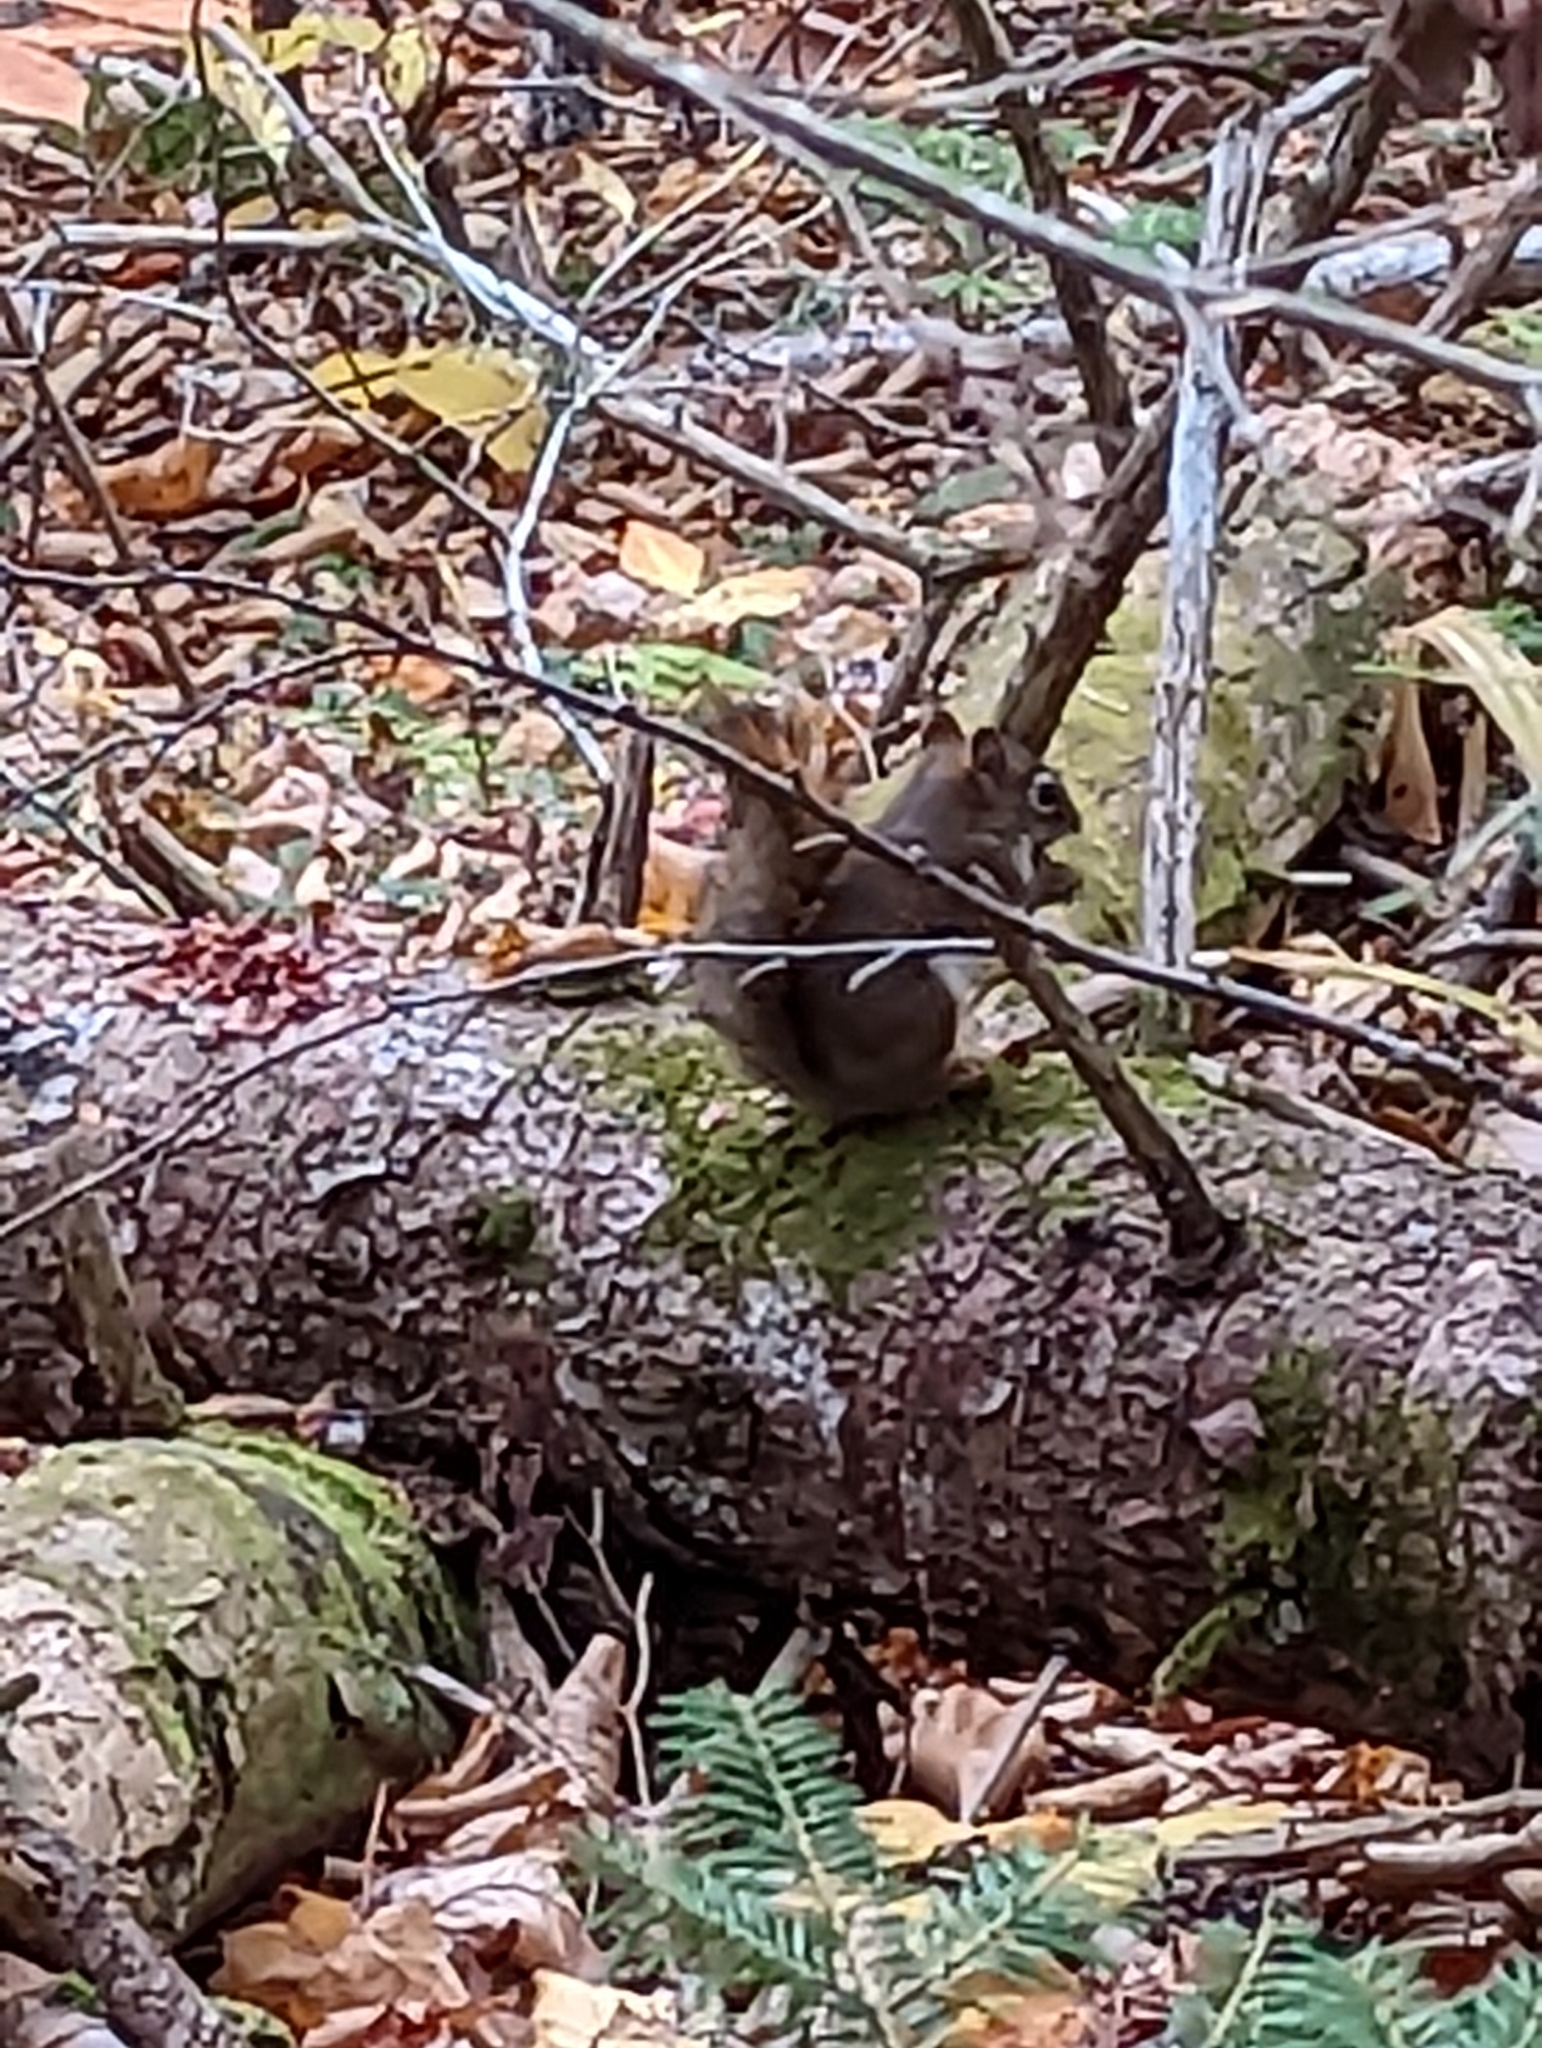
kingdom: Animalia
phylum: Chordata
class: Mammalia
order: Rodentia
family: Sciuridae
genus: Tamiasciurus
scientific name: Tamiasciurus hudsonicus
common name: Red squirrel
